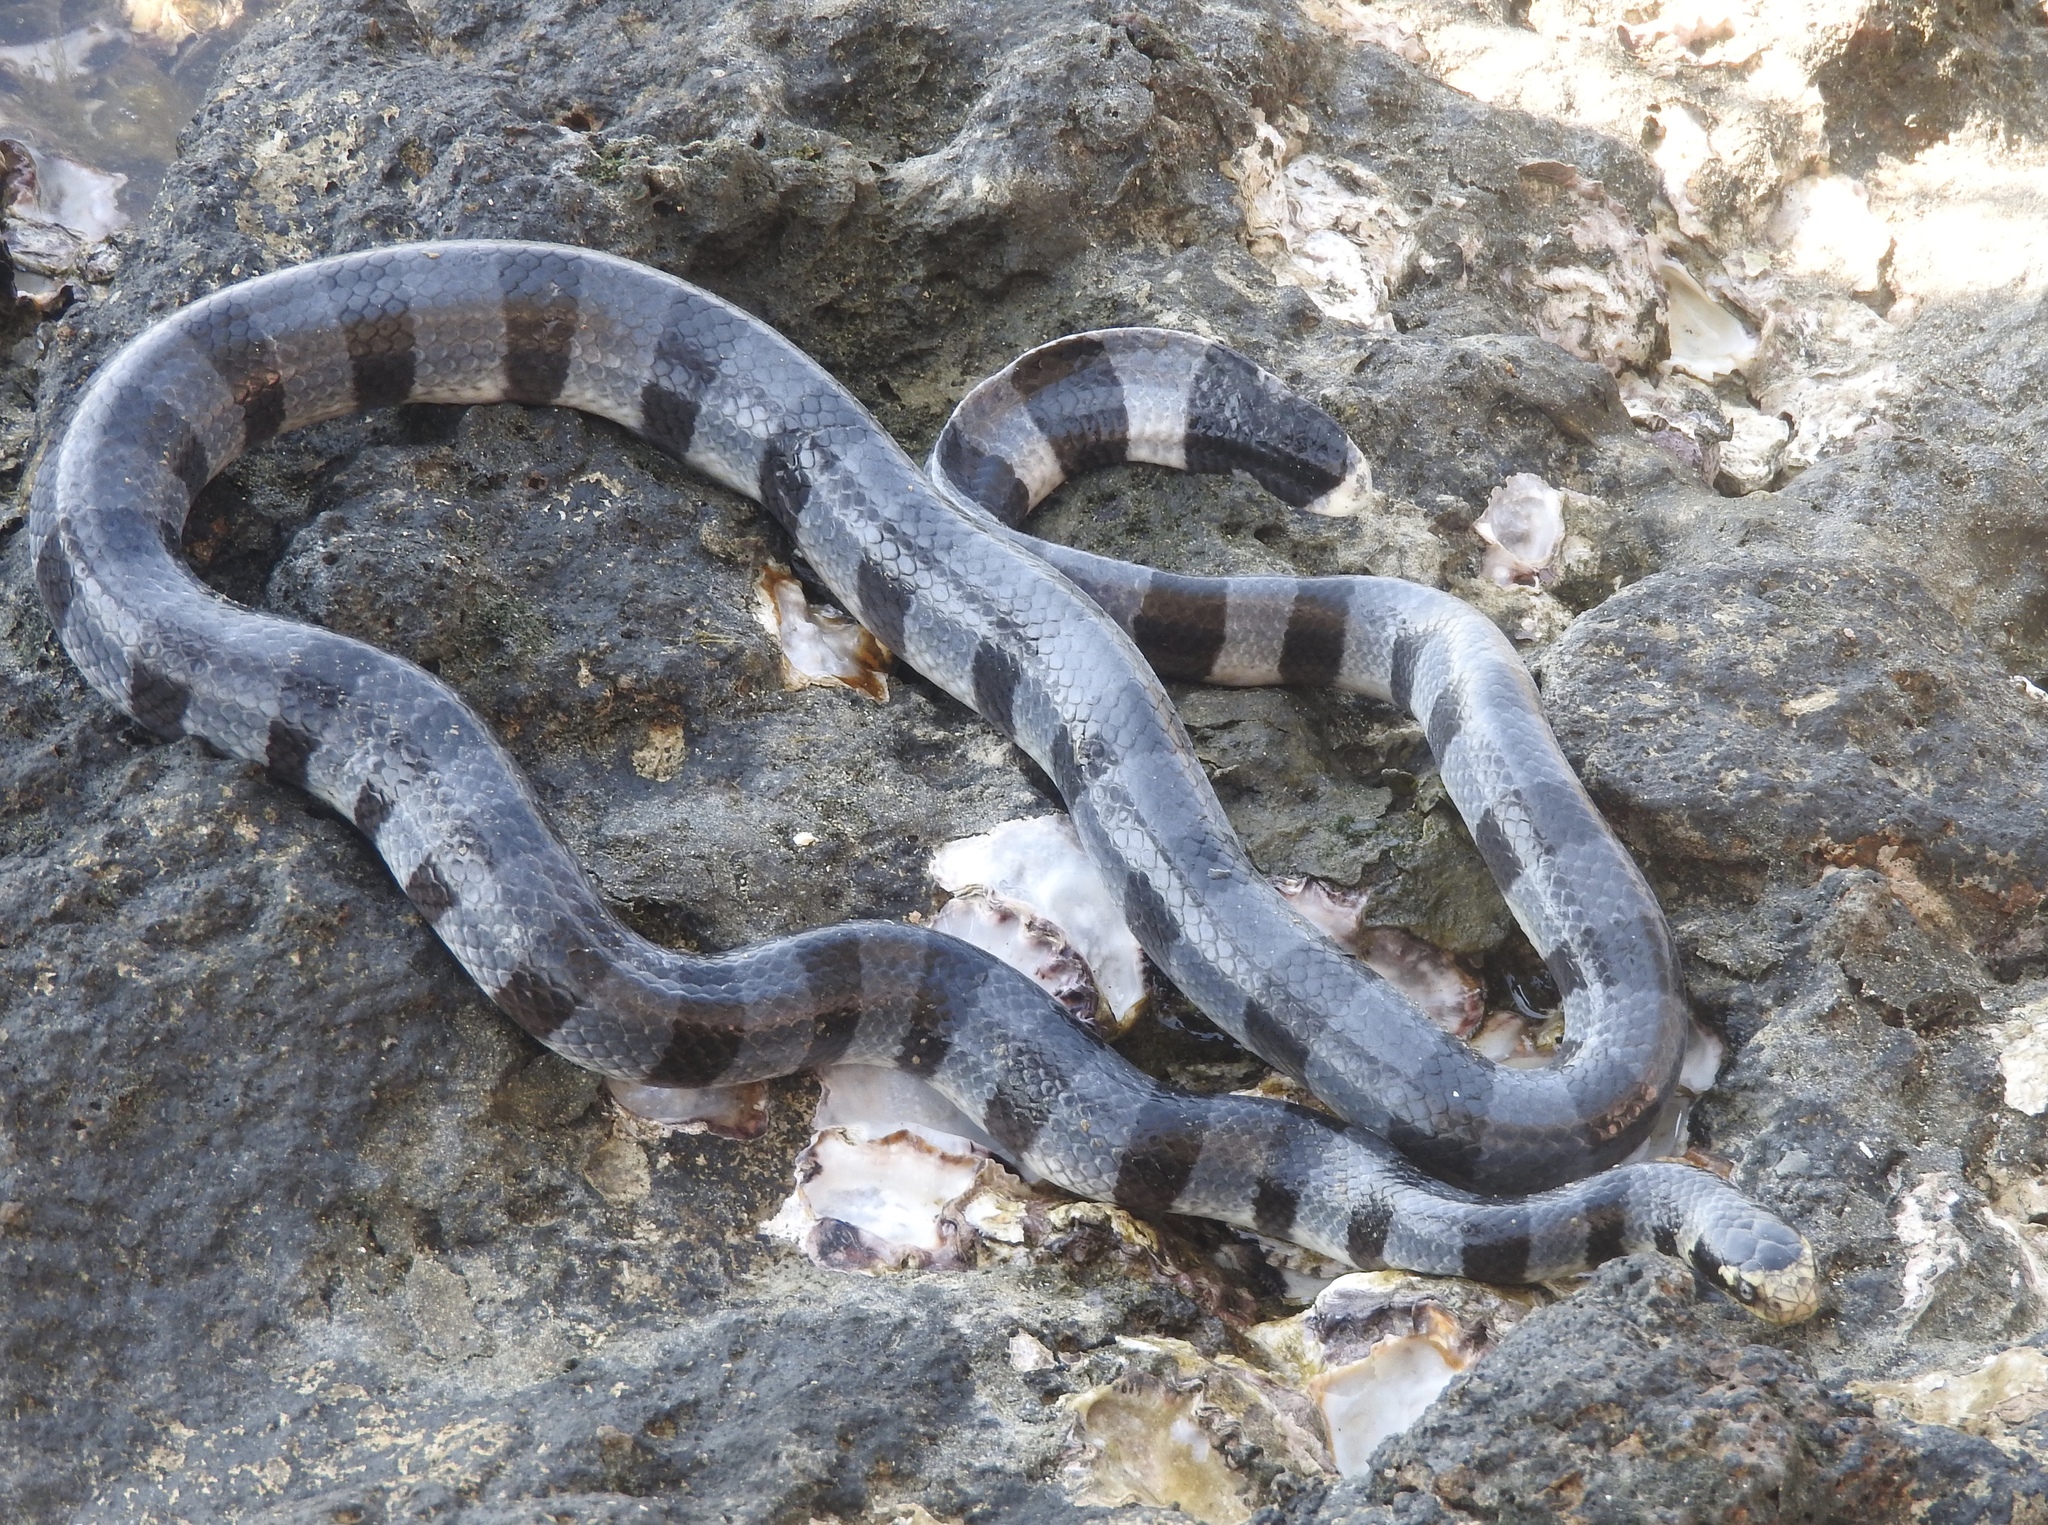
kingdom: Animalia
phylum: Chordata
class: Squamata
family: Elapidae
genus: Laticauda
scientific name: Laticauda colubrina
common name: Yellow-lipped sea krait
